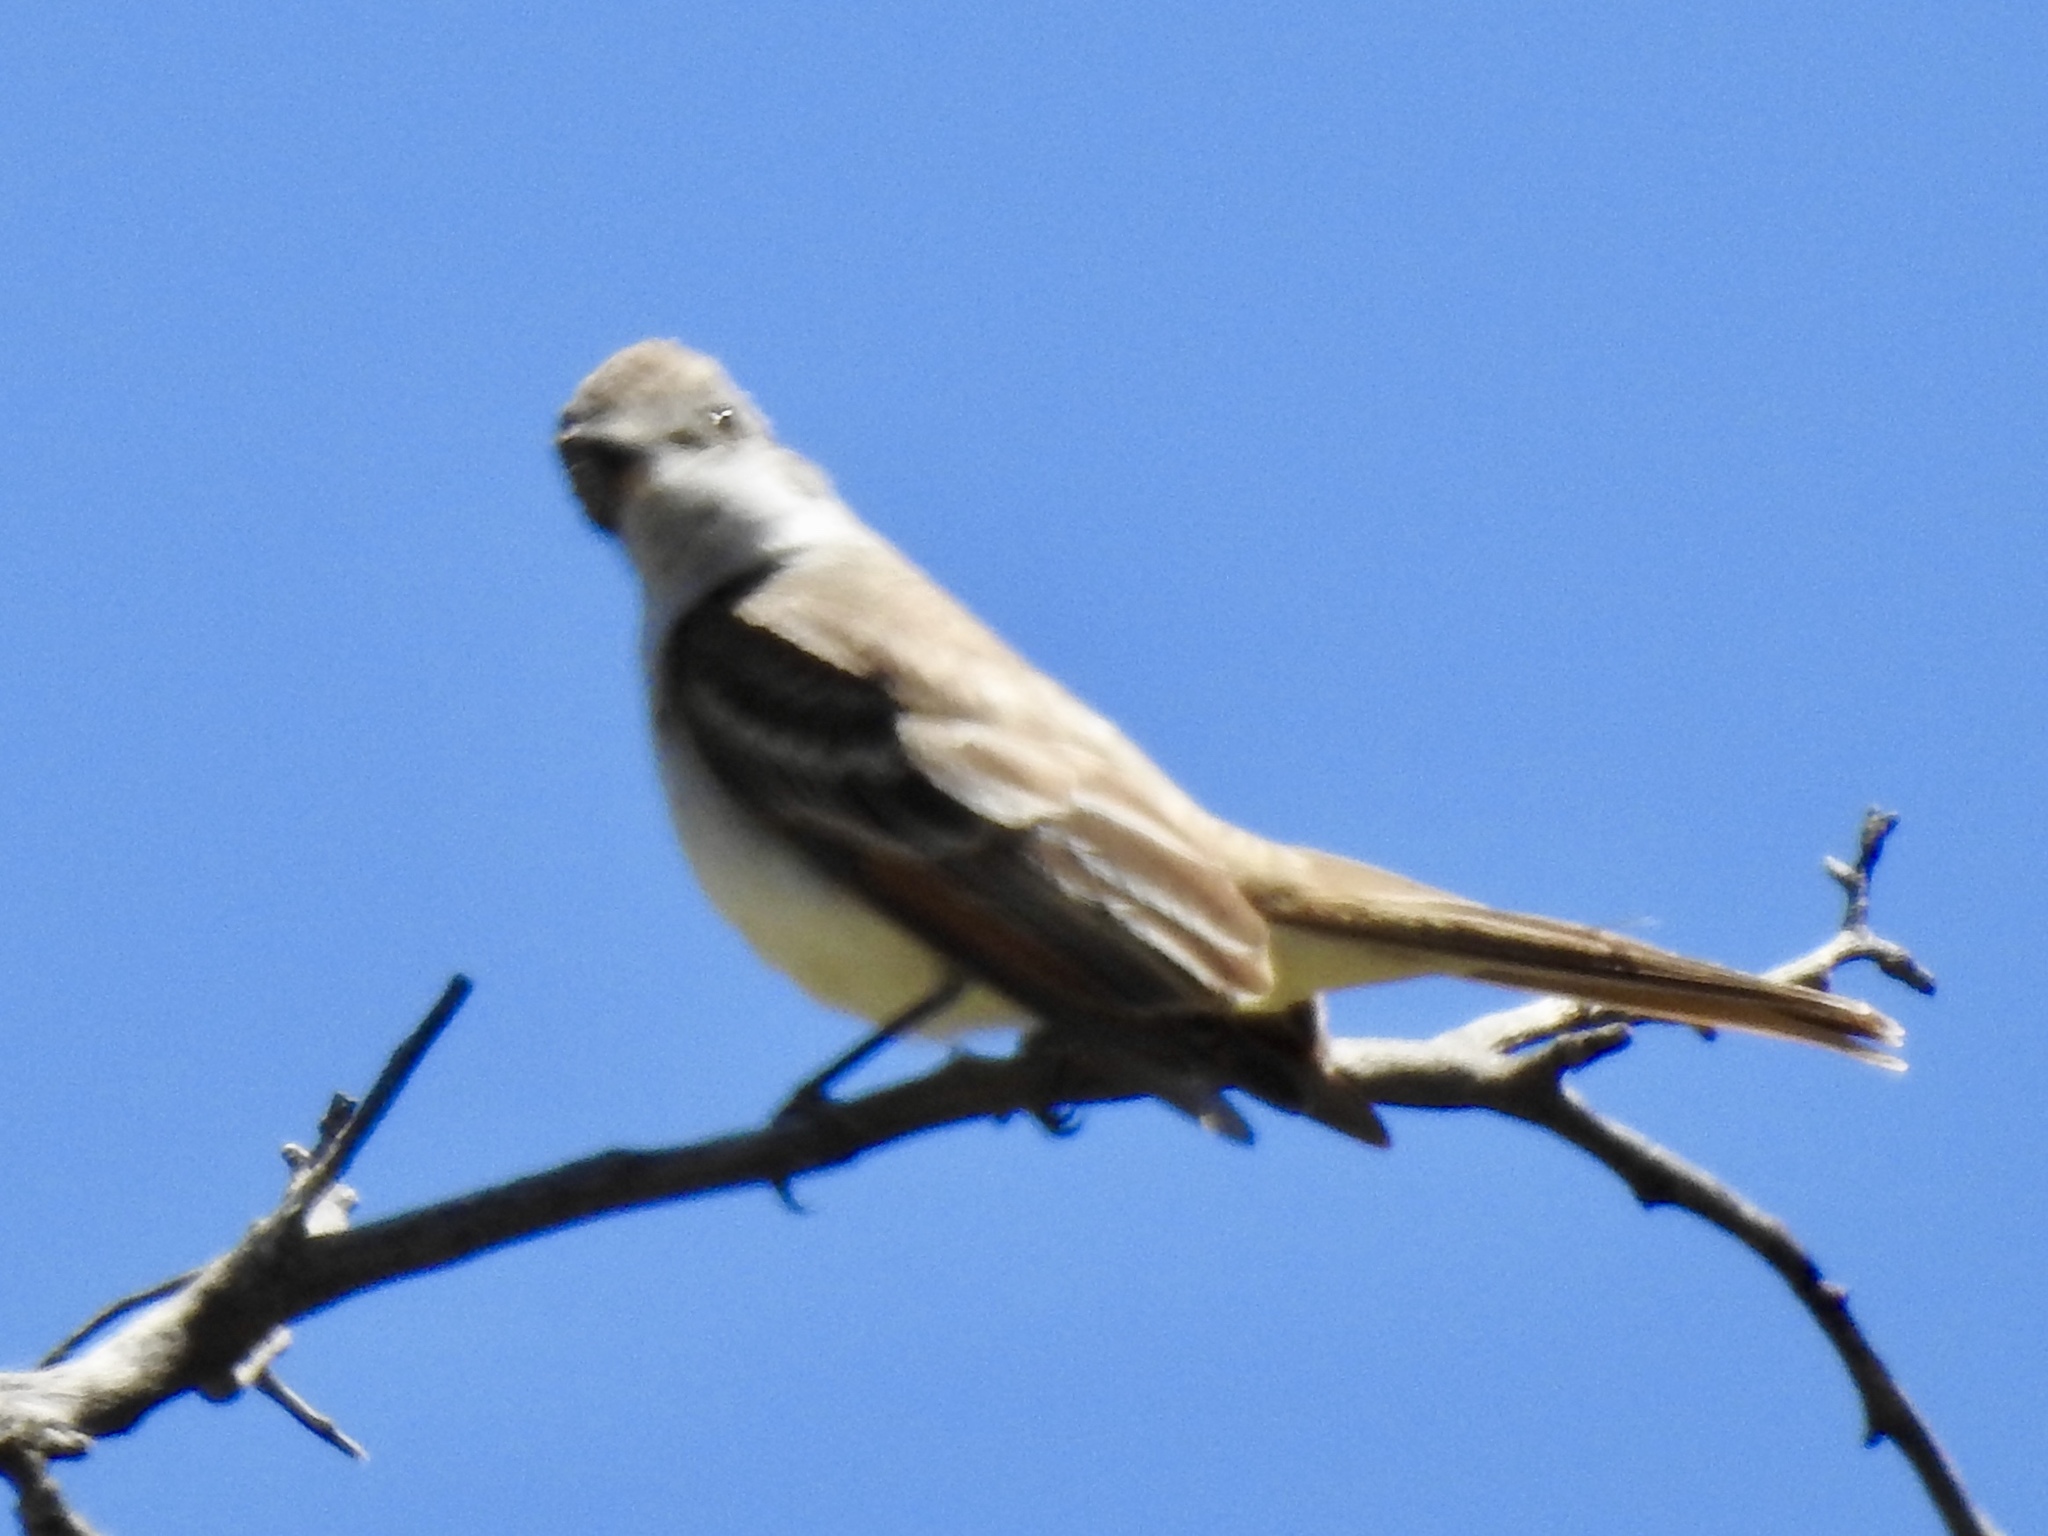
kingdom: Animalia
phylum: Chordata
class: Aves
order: Passeriformes
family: Tyrannidae
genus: Myiarchus
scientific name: Myiarchus cinerascens
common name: Ash-throated flycatcher
